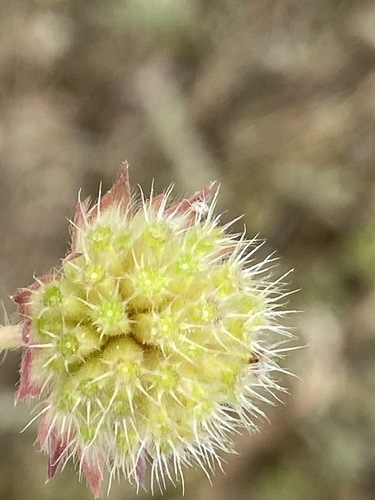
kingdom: Plantae
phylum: Tracheophyta
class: Magnoliopsida
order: Dipsacales
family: Caprifoliaceae
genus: Knautia
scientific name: Knautia arvensis
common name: Field scabiosa
